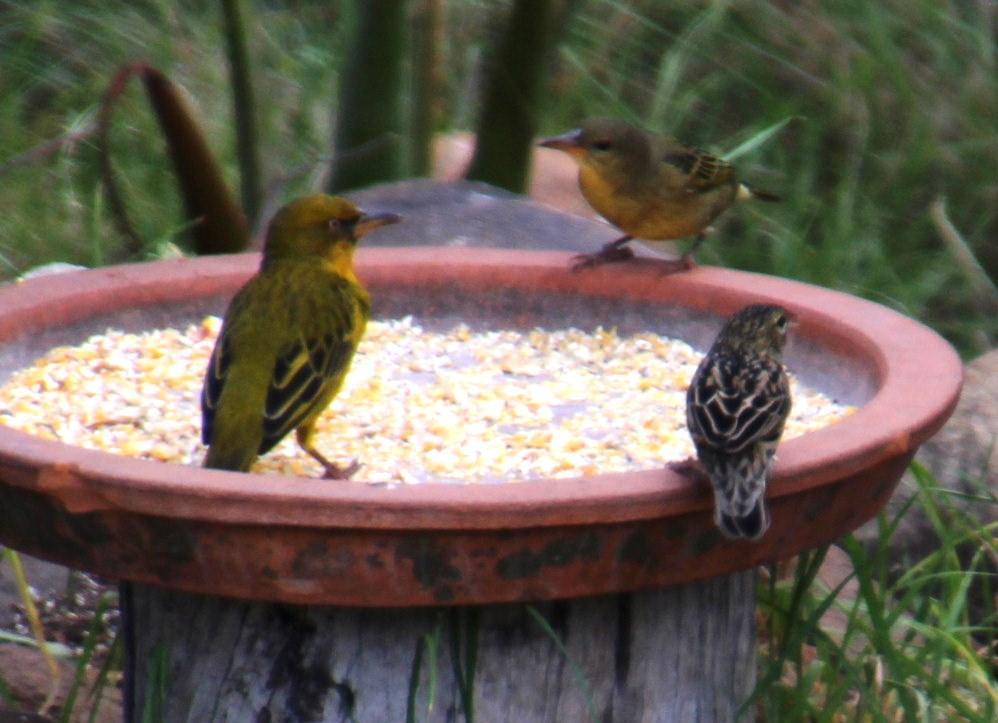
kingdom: Animalia
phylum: Chordata
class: Aves
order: Passeriformes
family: Ploceidae
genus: Euplectes
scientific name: Euplectes orix
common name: Southern red bishop
